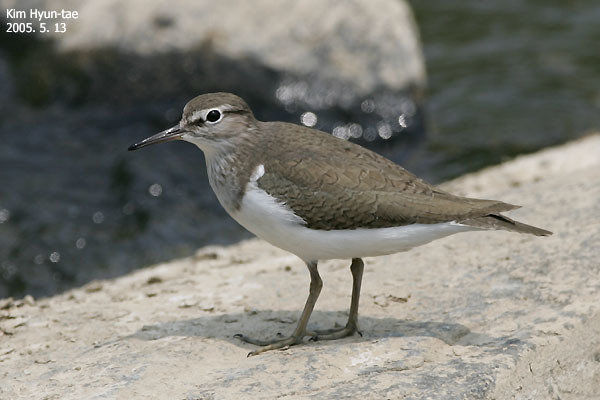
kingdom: Animalia
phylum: Chordata
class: Aves
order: Charadriiformes
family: Scolopacidae
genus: Actitis
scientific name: Actitis hypoleucos
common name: Common sandpiper
